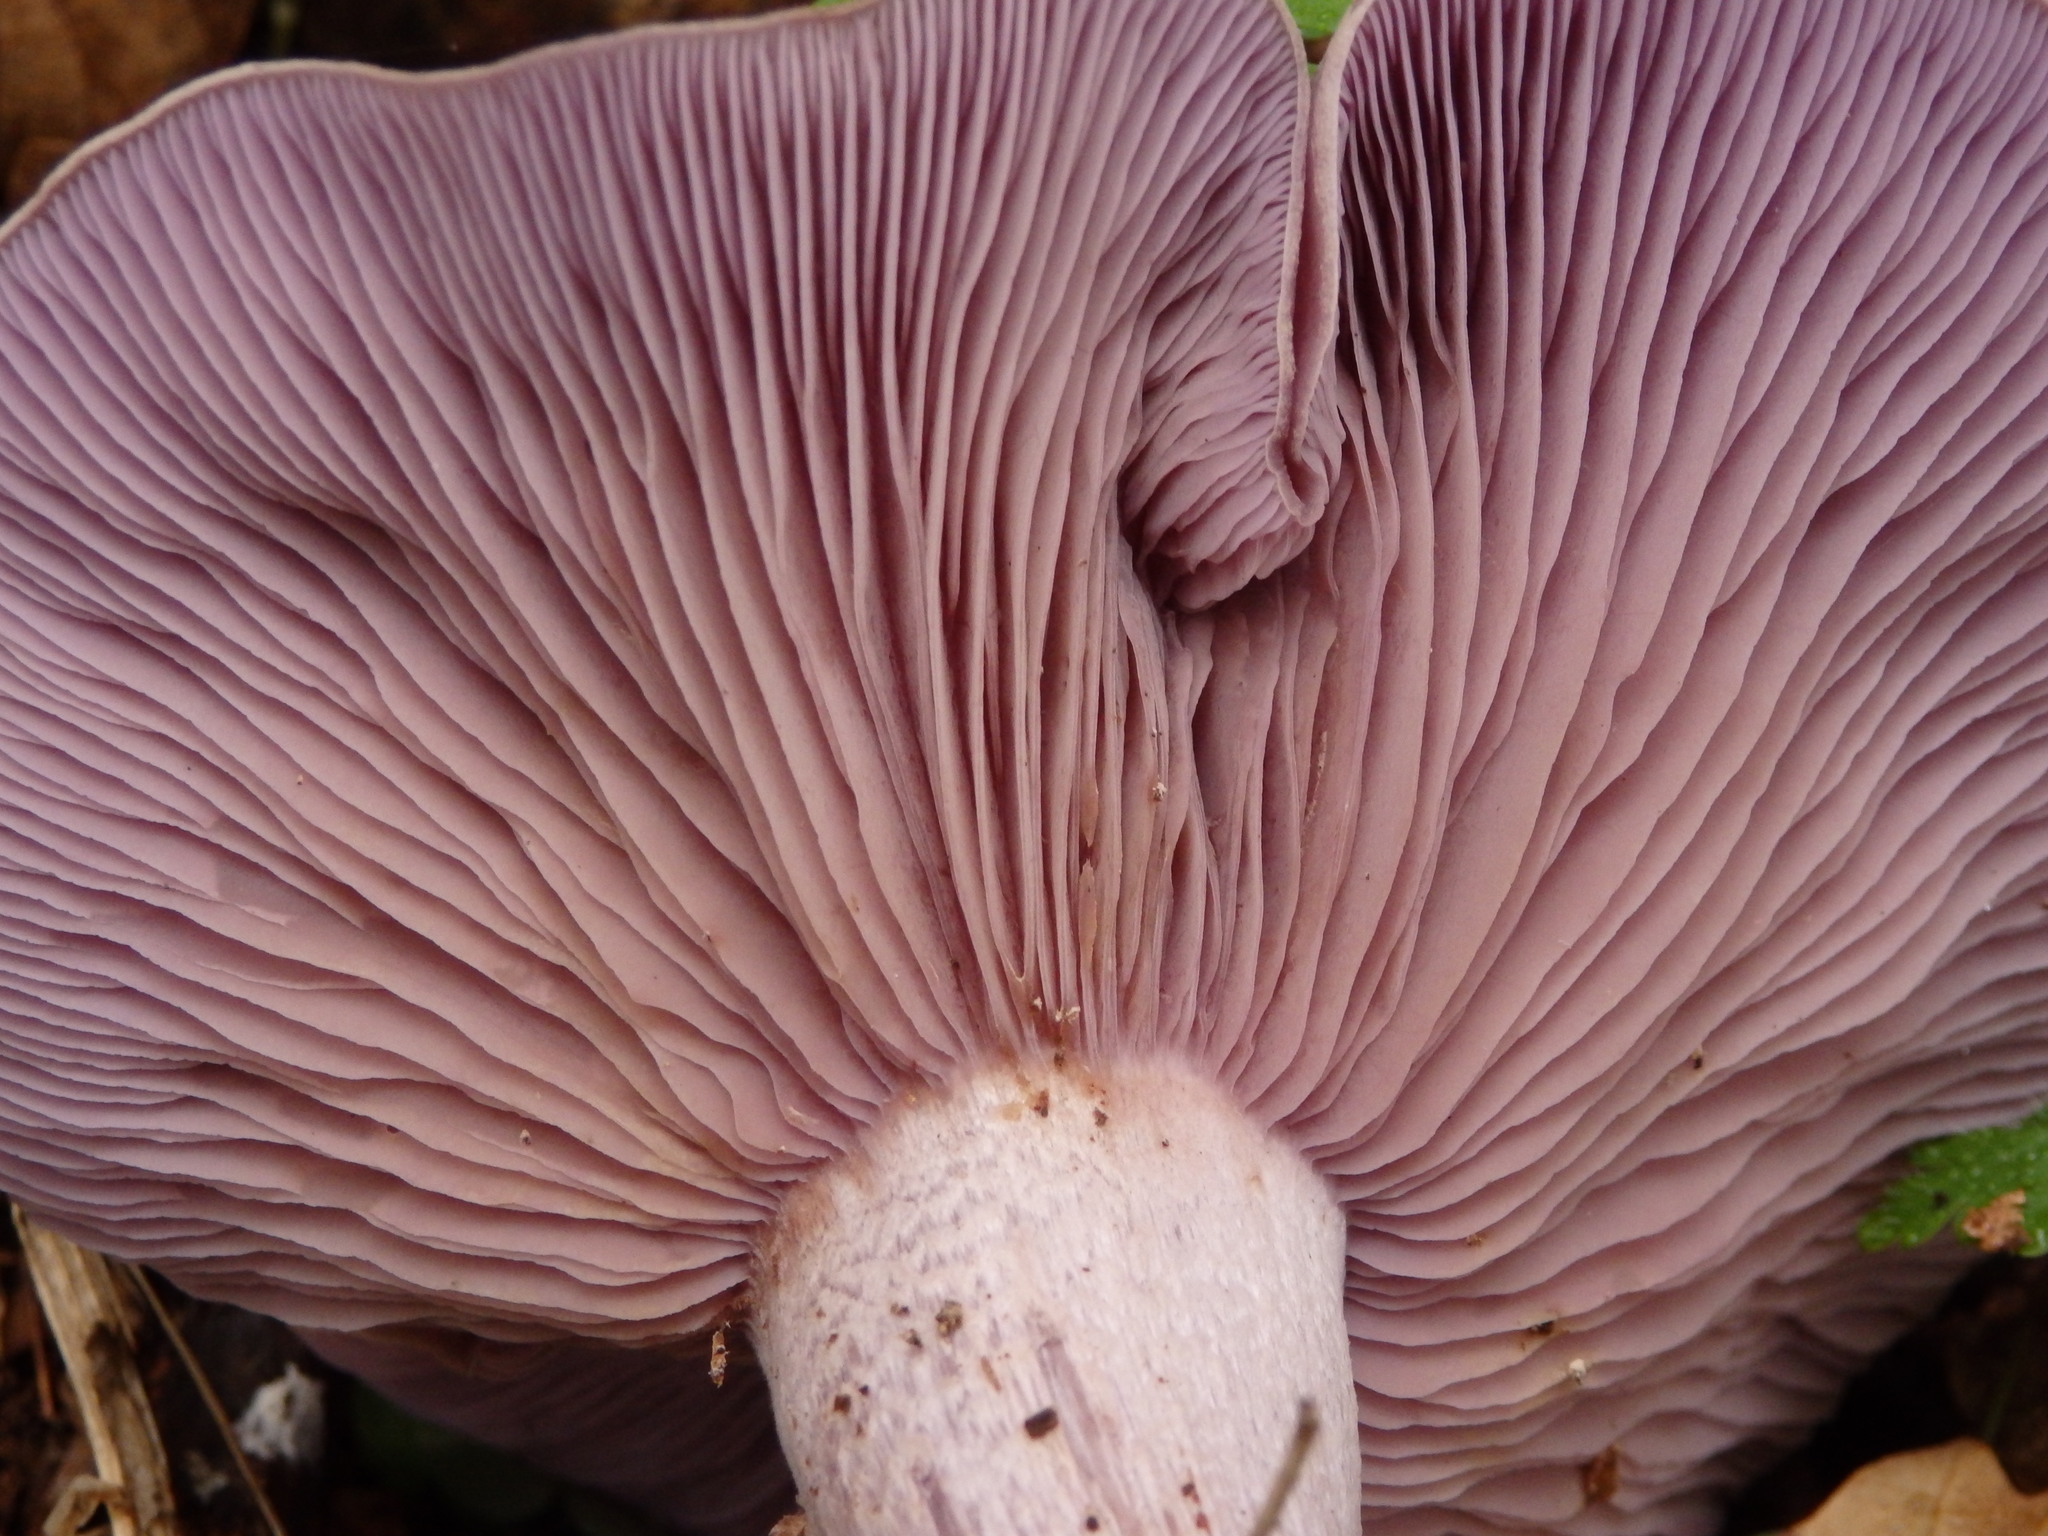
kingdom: Fungi
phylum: Basidiomycota
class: Agaricomycetes
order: Agaricales
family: Tricholomataceae
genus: Collybia
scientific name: Collybia
